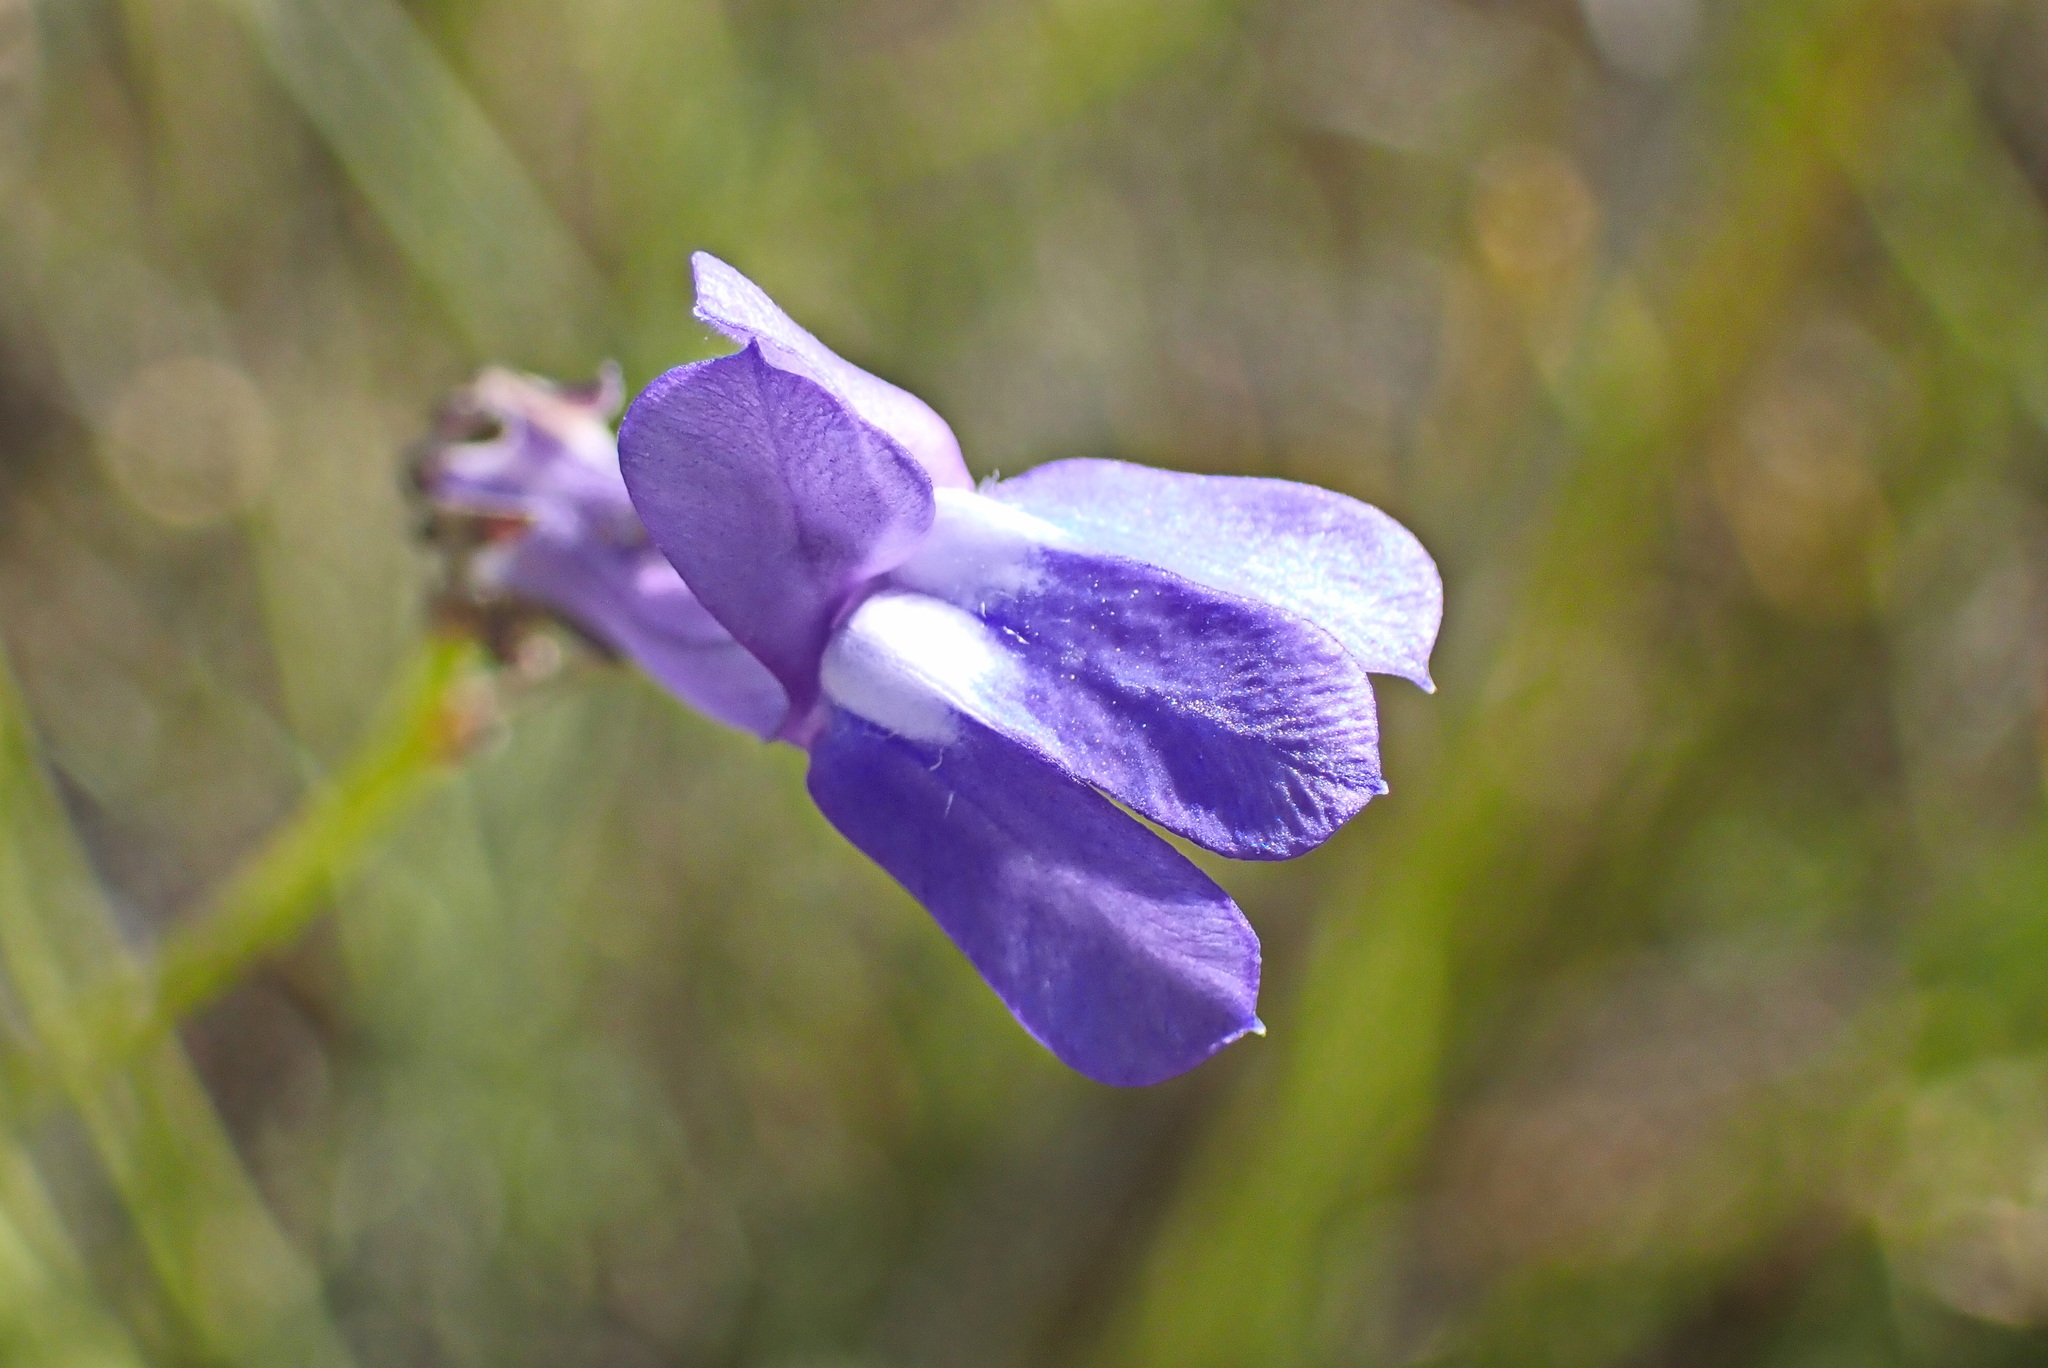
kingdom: Plantae
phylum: Tracheophyta
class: Magnoliopsida
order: Asterales
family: Campanulaceae
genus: Lobelia
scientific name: Lobelia linearis
